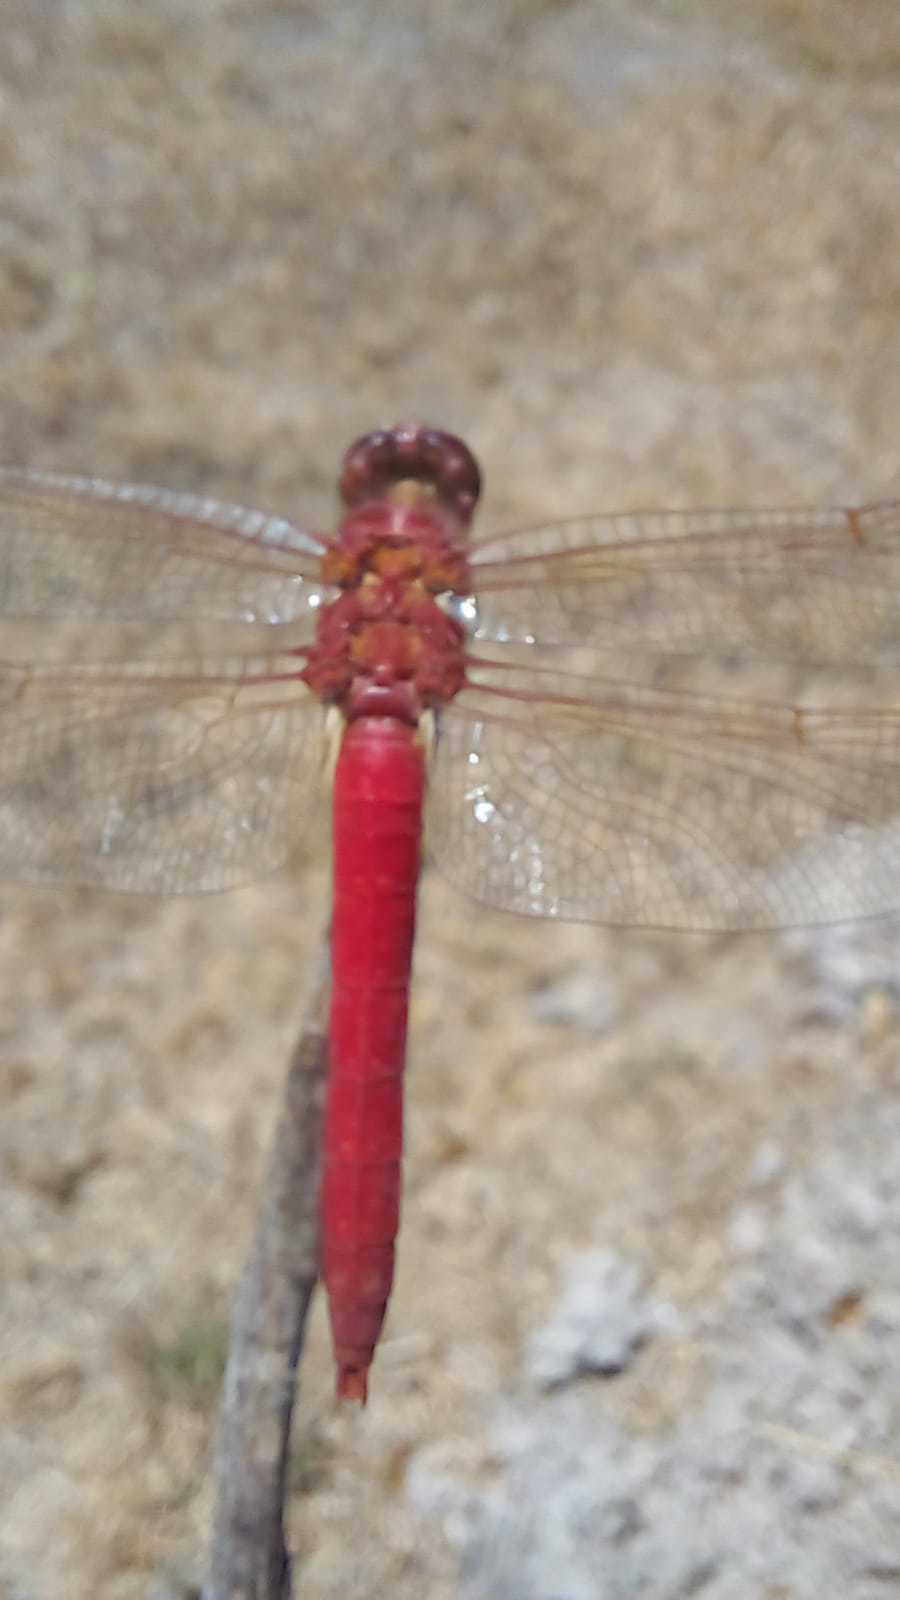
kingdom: Animalia
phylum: Arthropoda
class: Insecta
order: Odonata
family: Libellulidae
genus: Orthemis
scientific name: Orthemis nodiplaga
